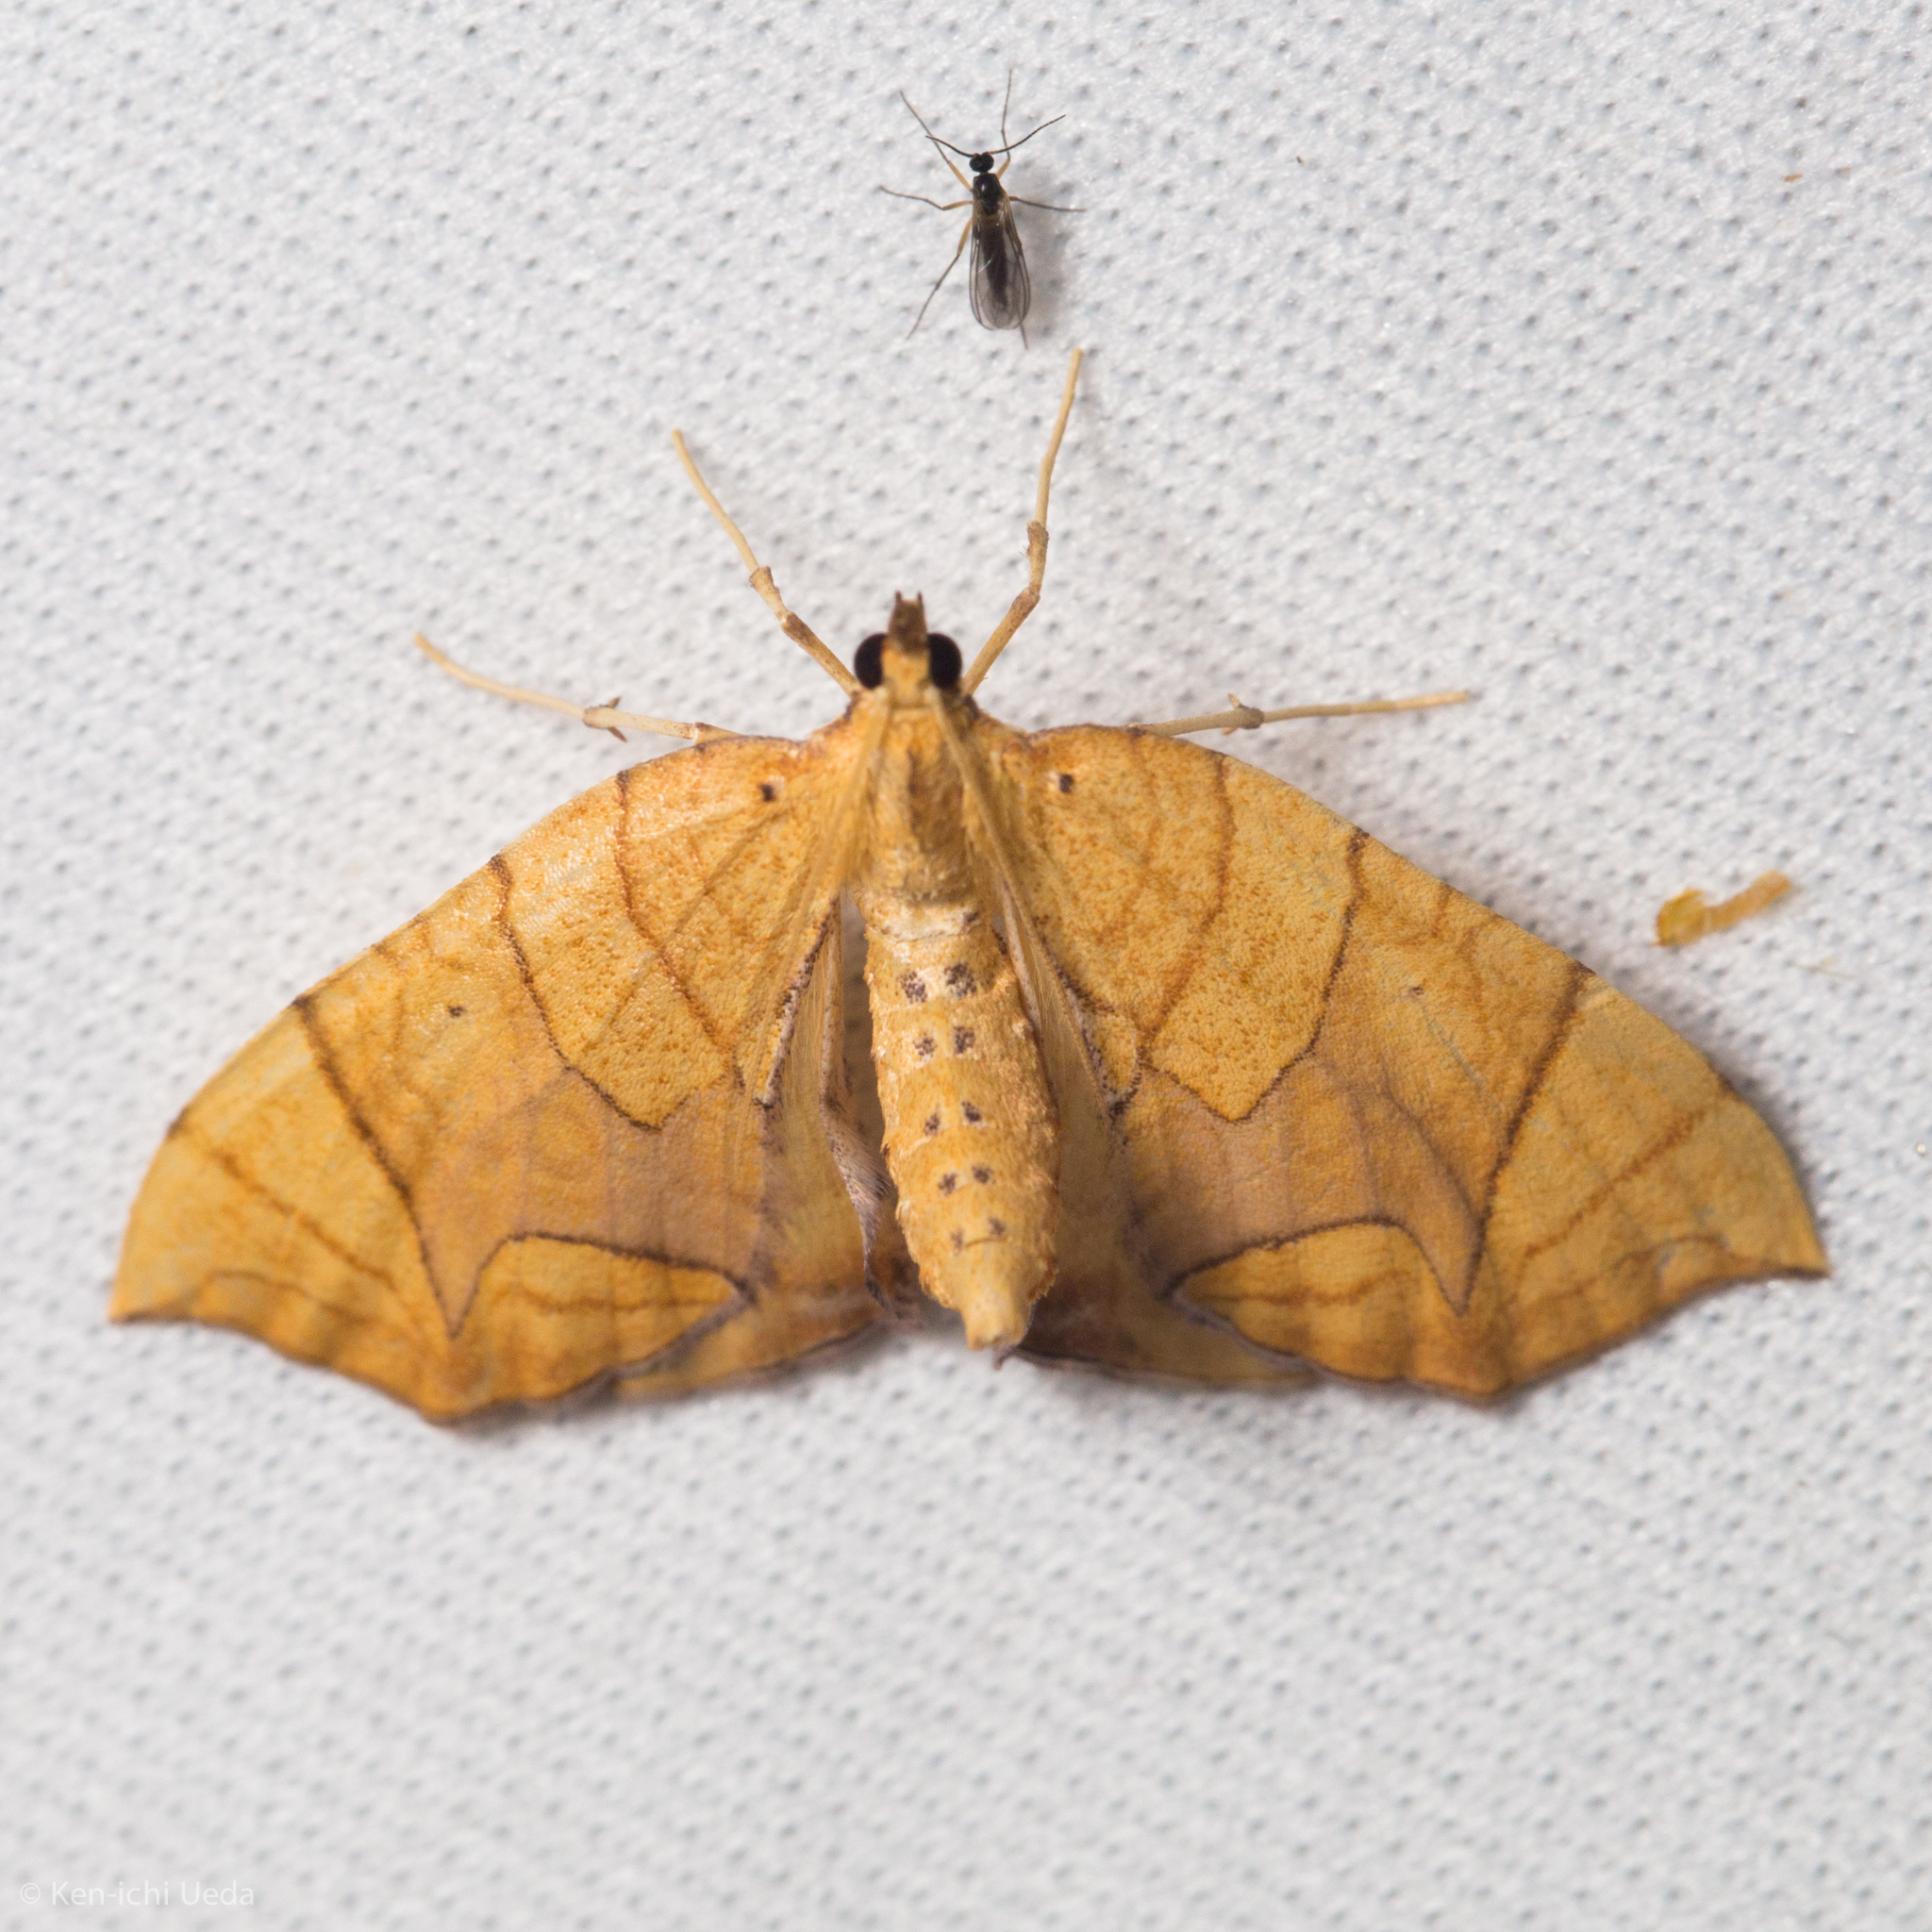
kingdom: Animalia
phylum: Arthropoda
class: Insecta
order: Lepidoptera
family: Geometridae
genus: Eulithis
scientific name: Eulithis
